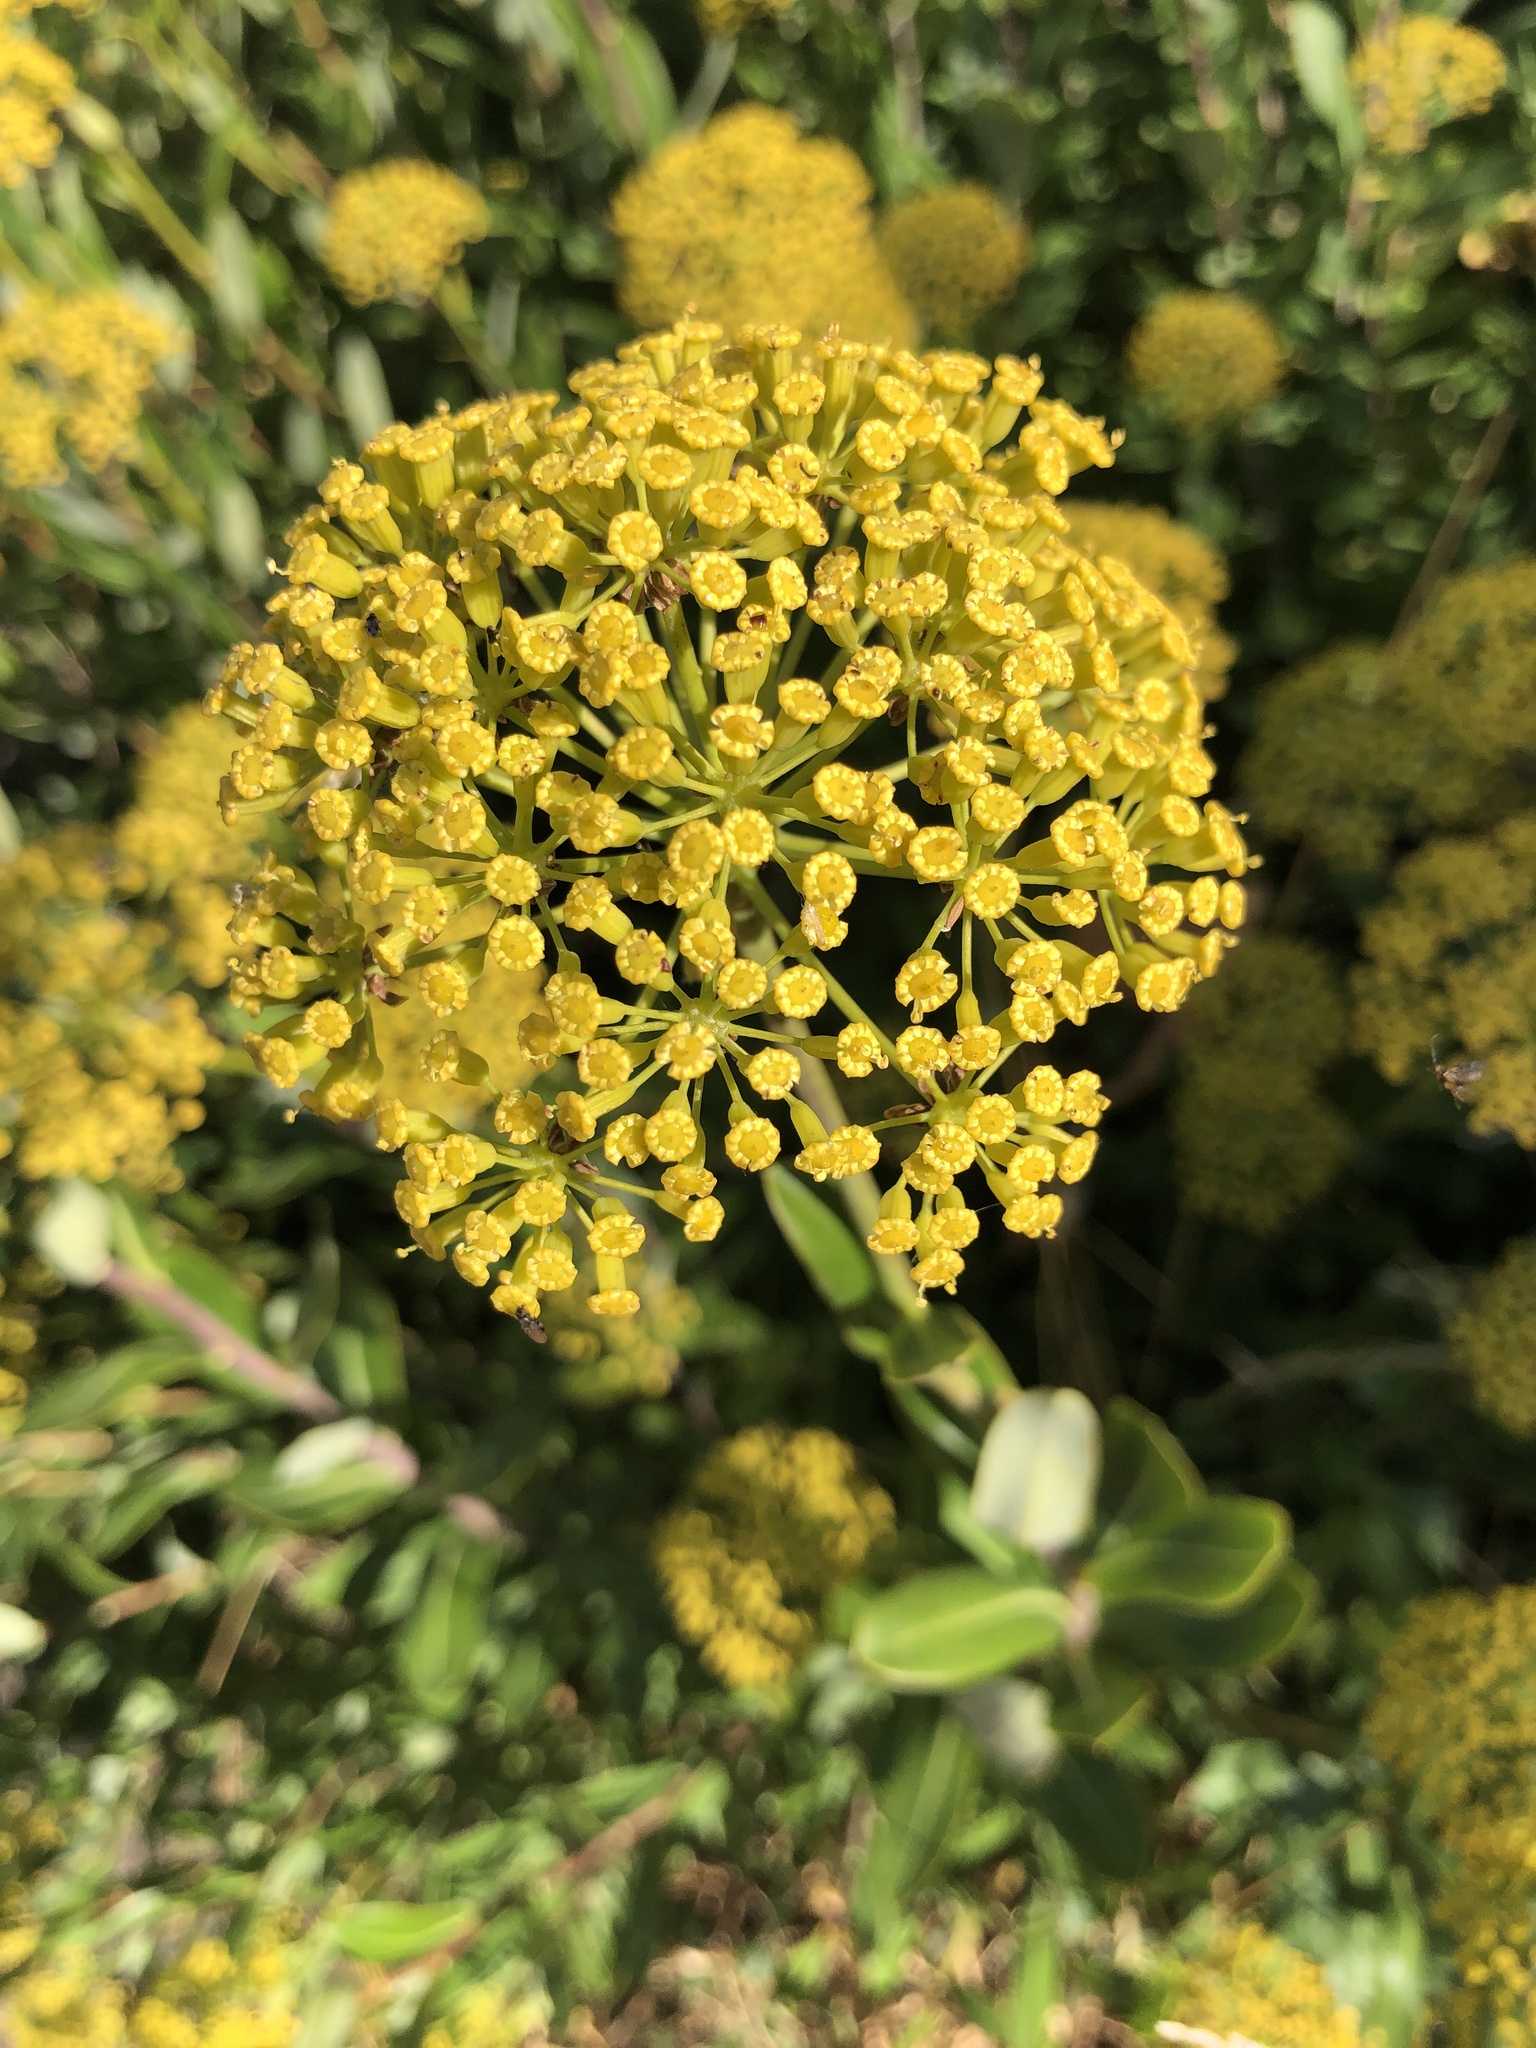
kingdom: Plantae
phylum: Tracheophyta
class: Magnoliopsida
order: Apiales
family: Apiaceae
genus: Bupleurum
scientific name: Bupleurum fruticosum
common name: Shrubby hare's-ear
